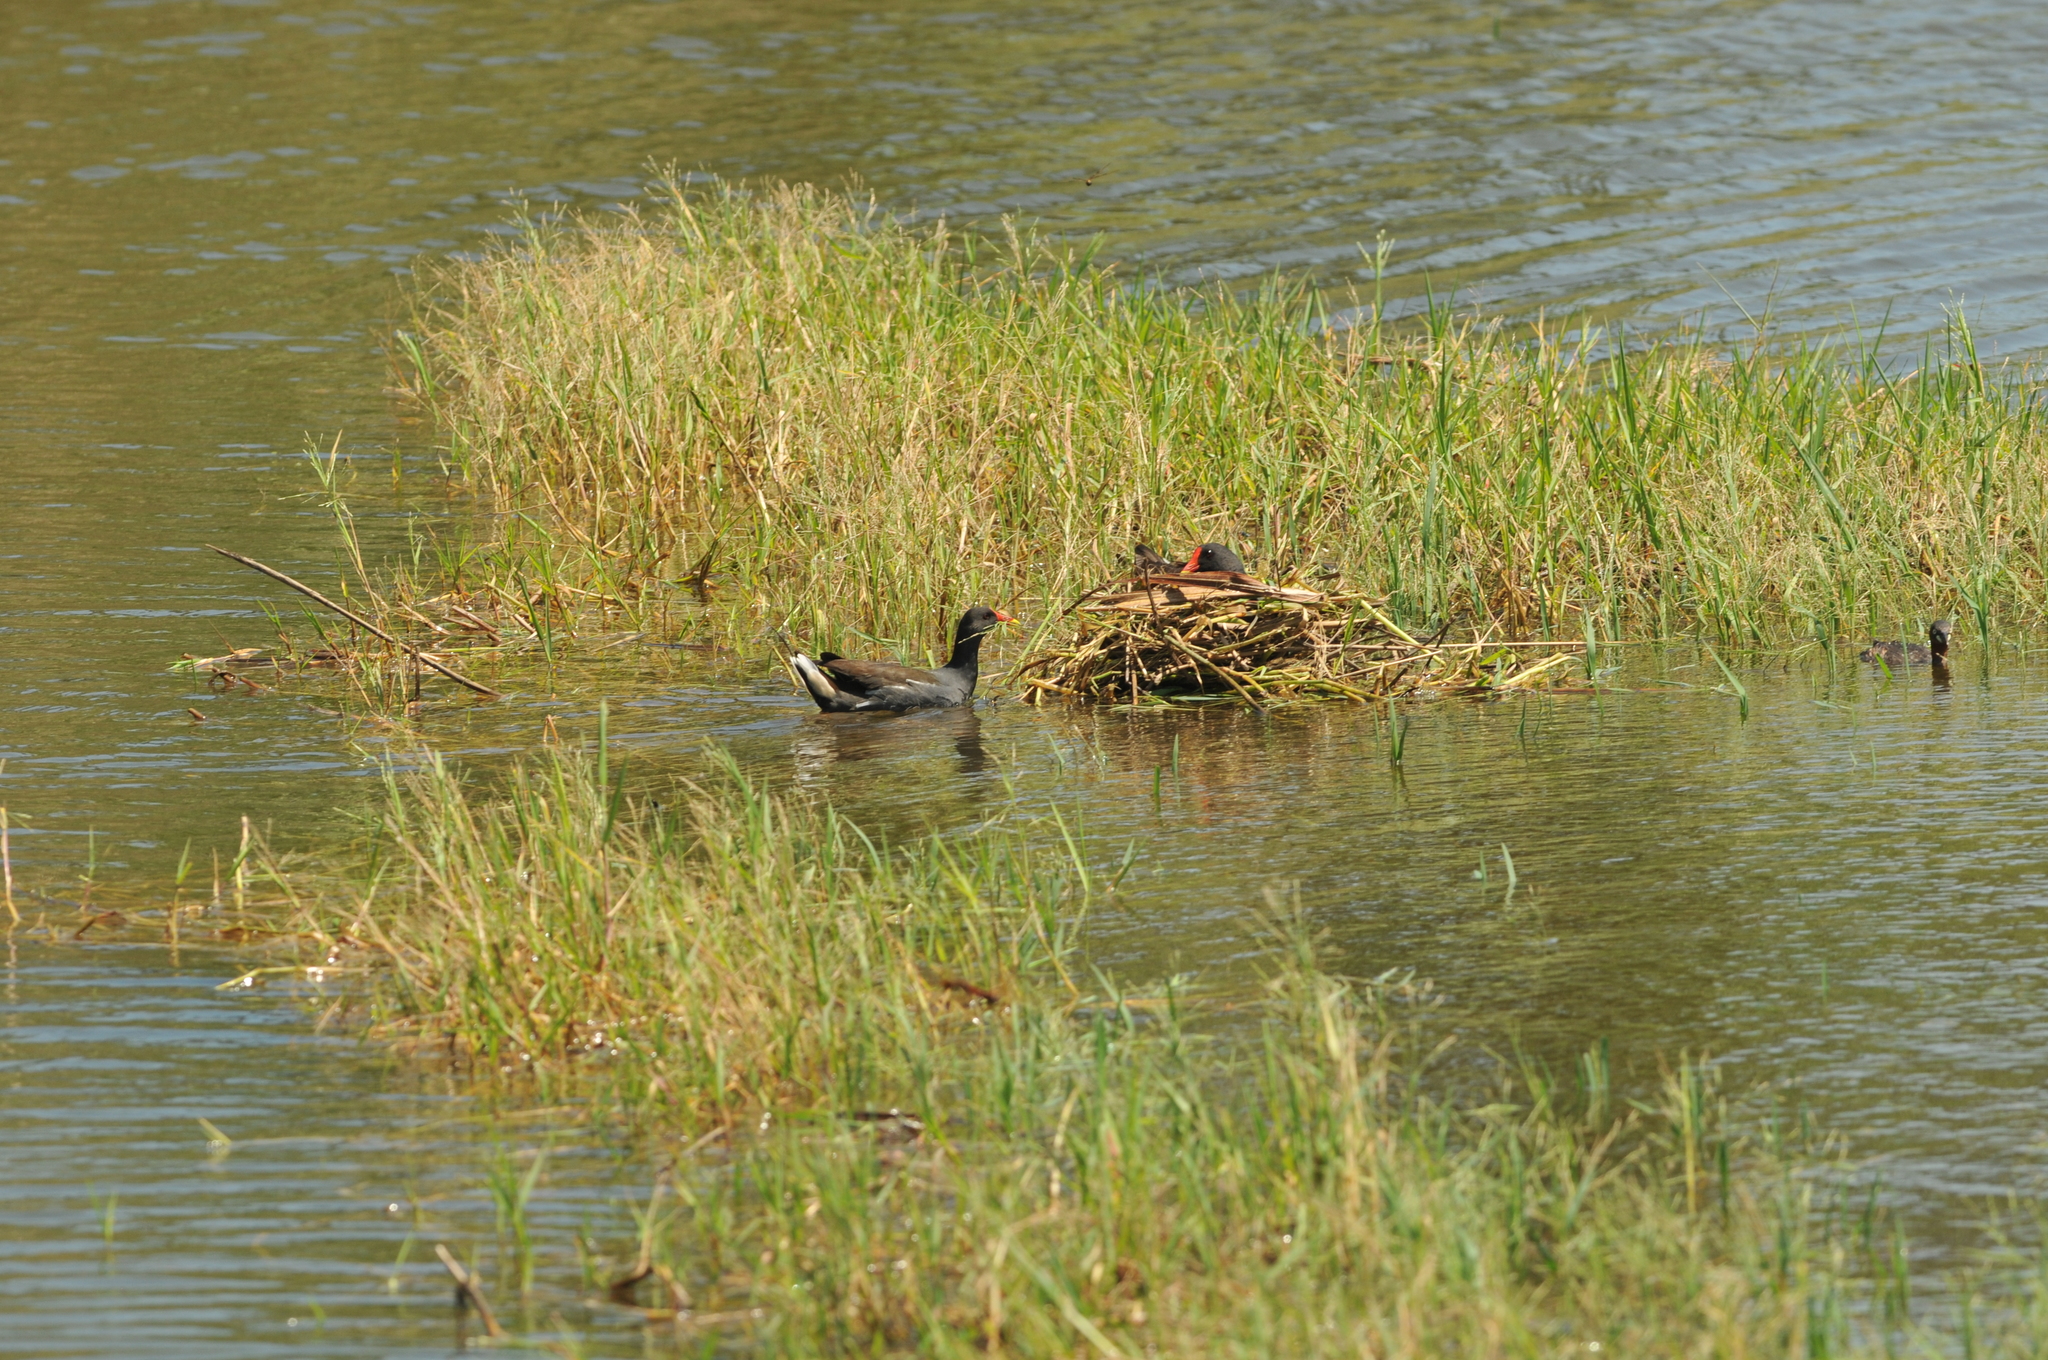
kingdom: Animalia
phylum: Chordata
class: Aves
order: Gruiformes
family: Rallidae
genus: Gallinula
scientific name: Gallinula chloropus
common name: Common moorhen
